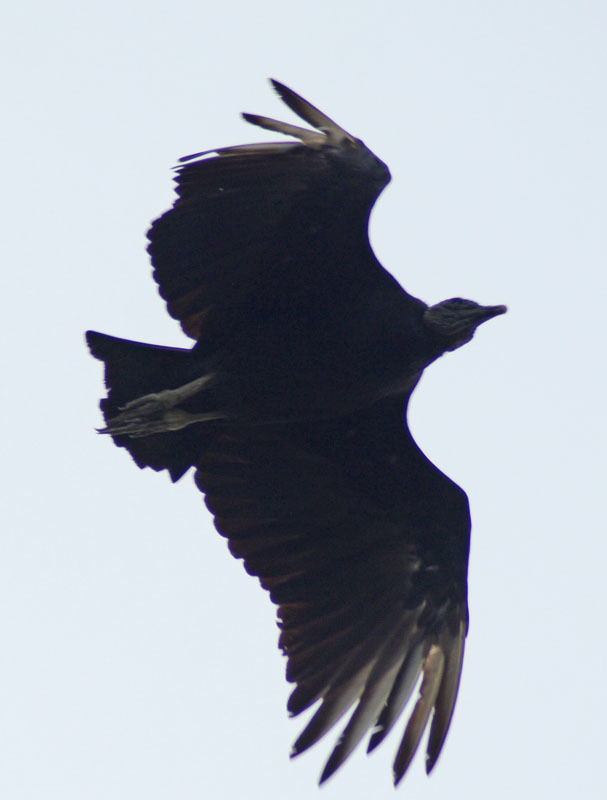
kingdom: Animalia
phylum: Chordata
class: Aves
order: Accipitriformes
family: Cathartidae
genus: Coragyps
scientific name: Coragyps atratus
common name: Black vulture
